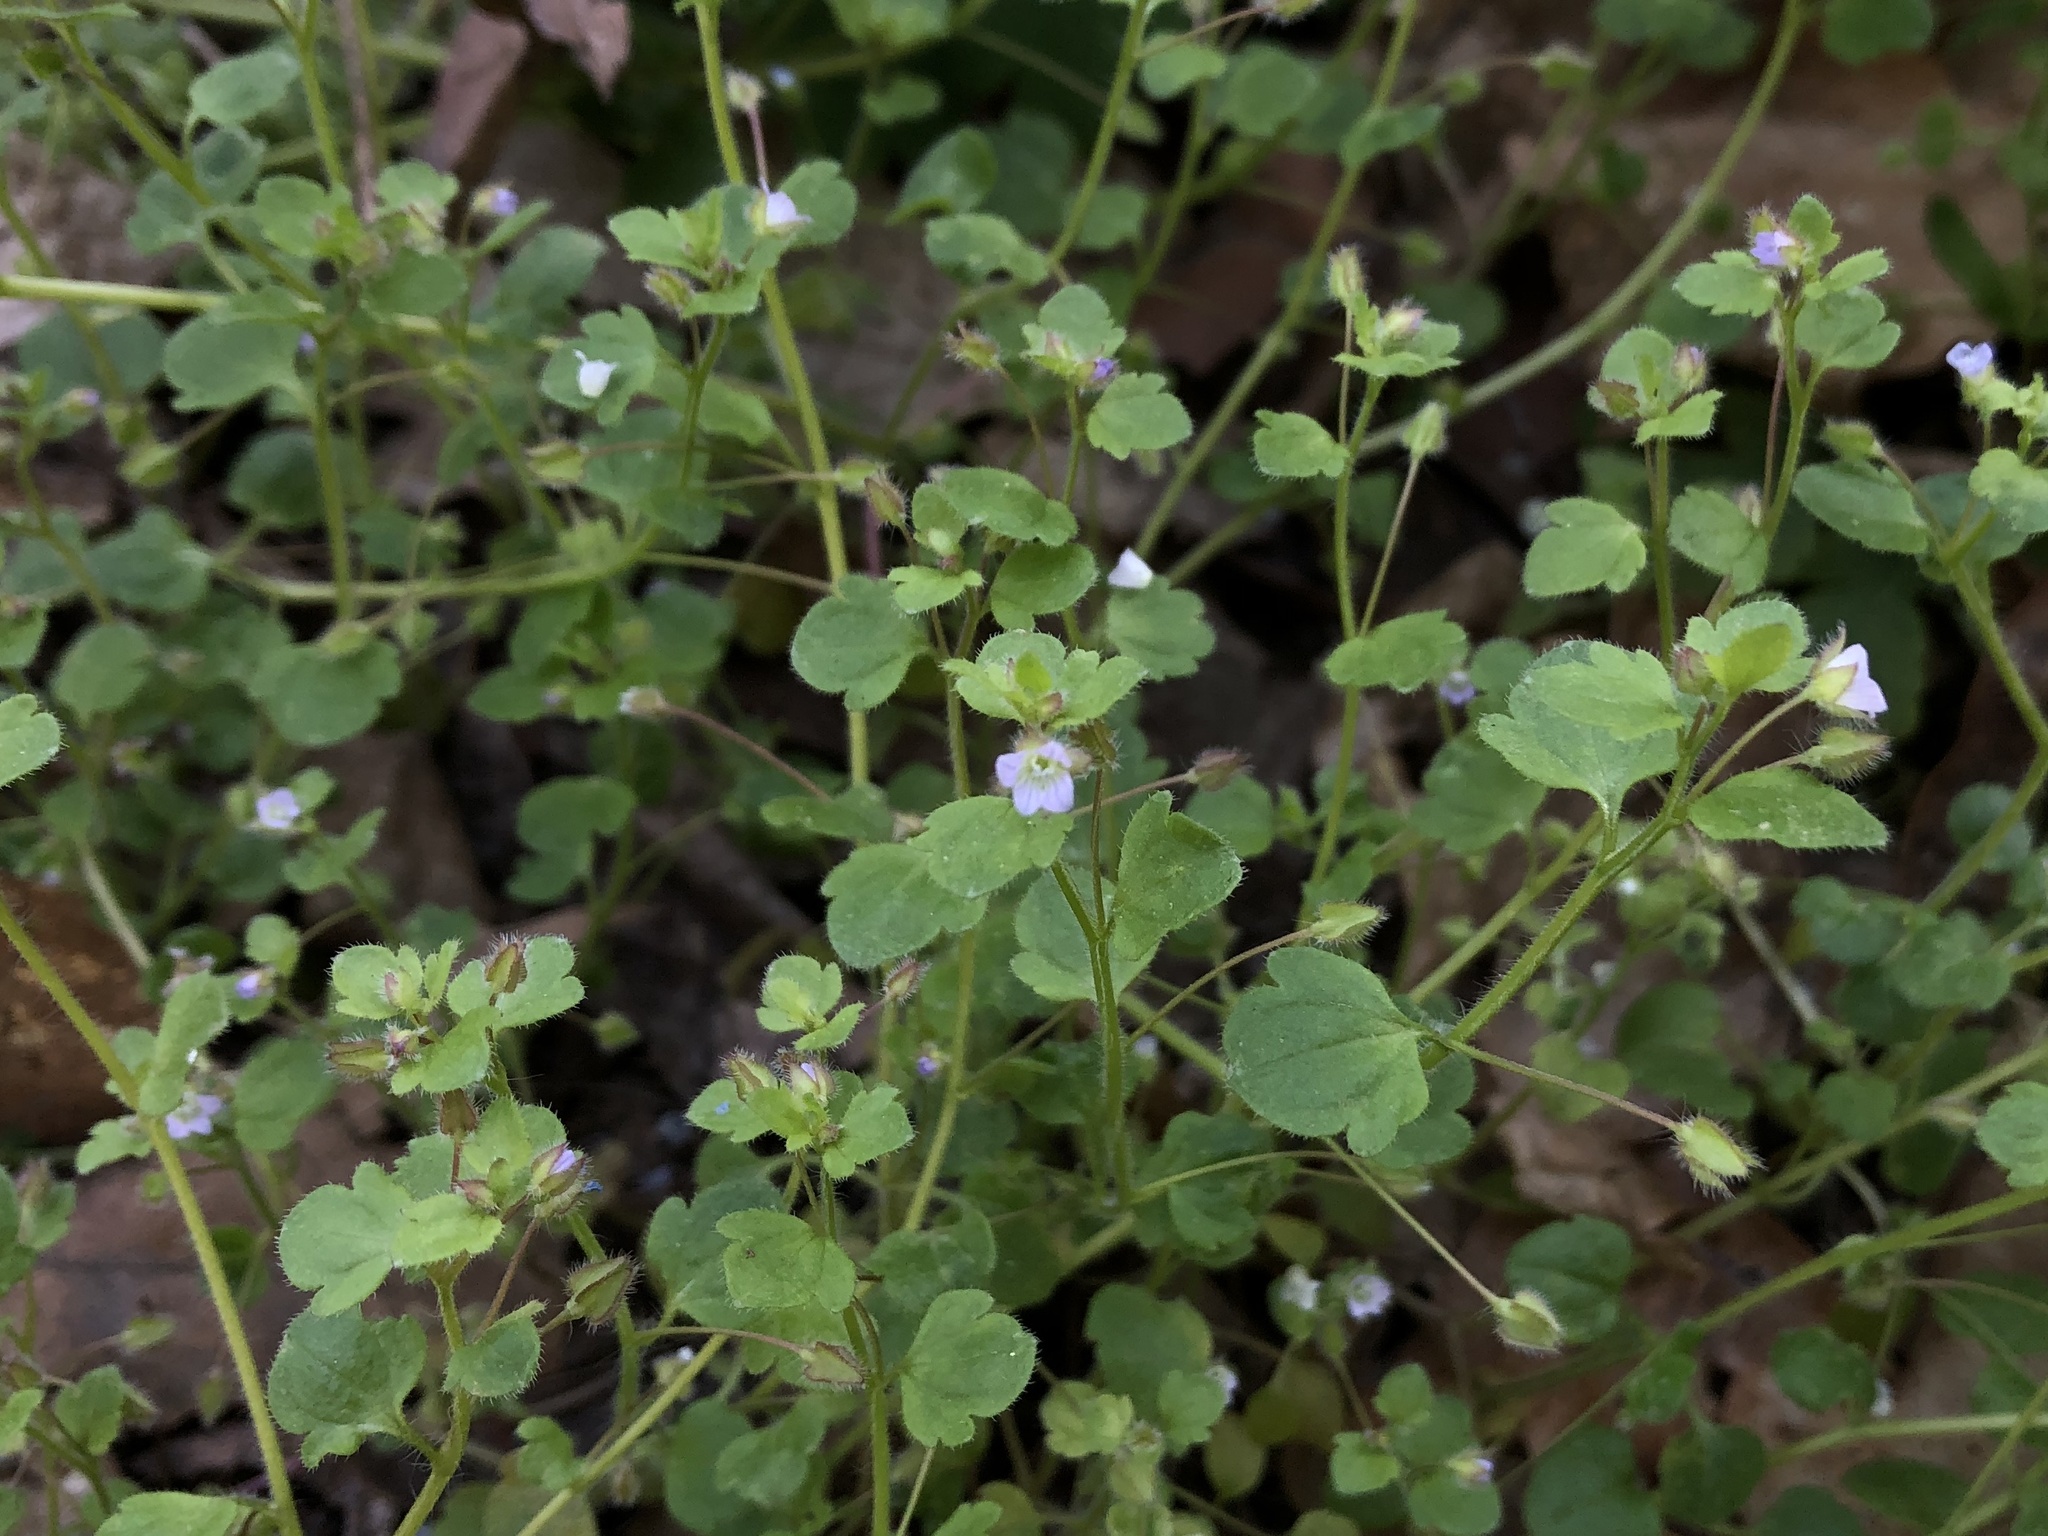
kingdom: Plantae
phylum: Tracheophyta
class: Magnoliopsida
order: Lamiales
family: Plantaginaceae
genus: Veronica
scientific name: Veronica sublobata
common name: False ivy-leaved speedwell
